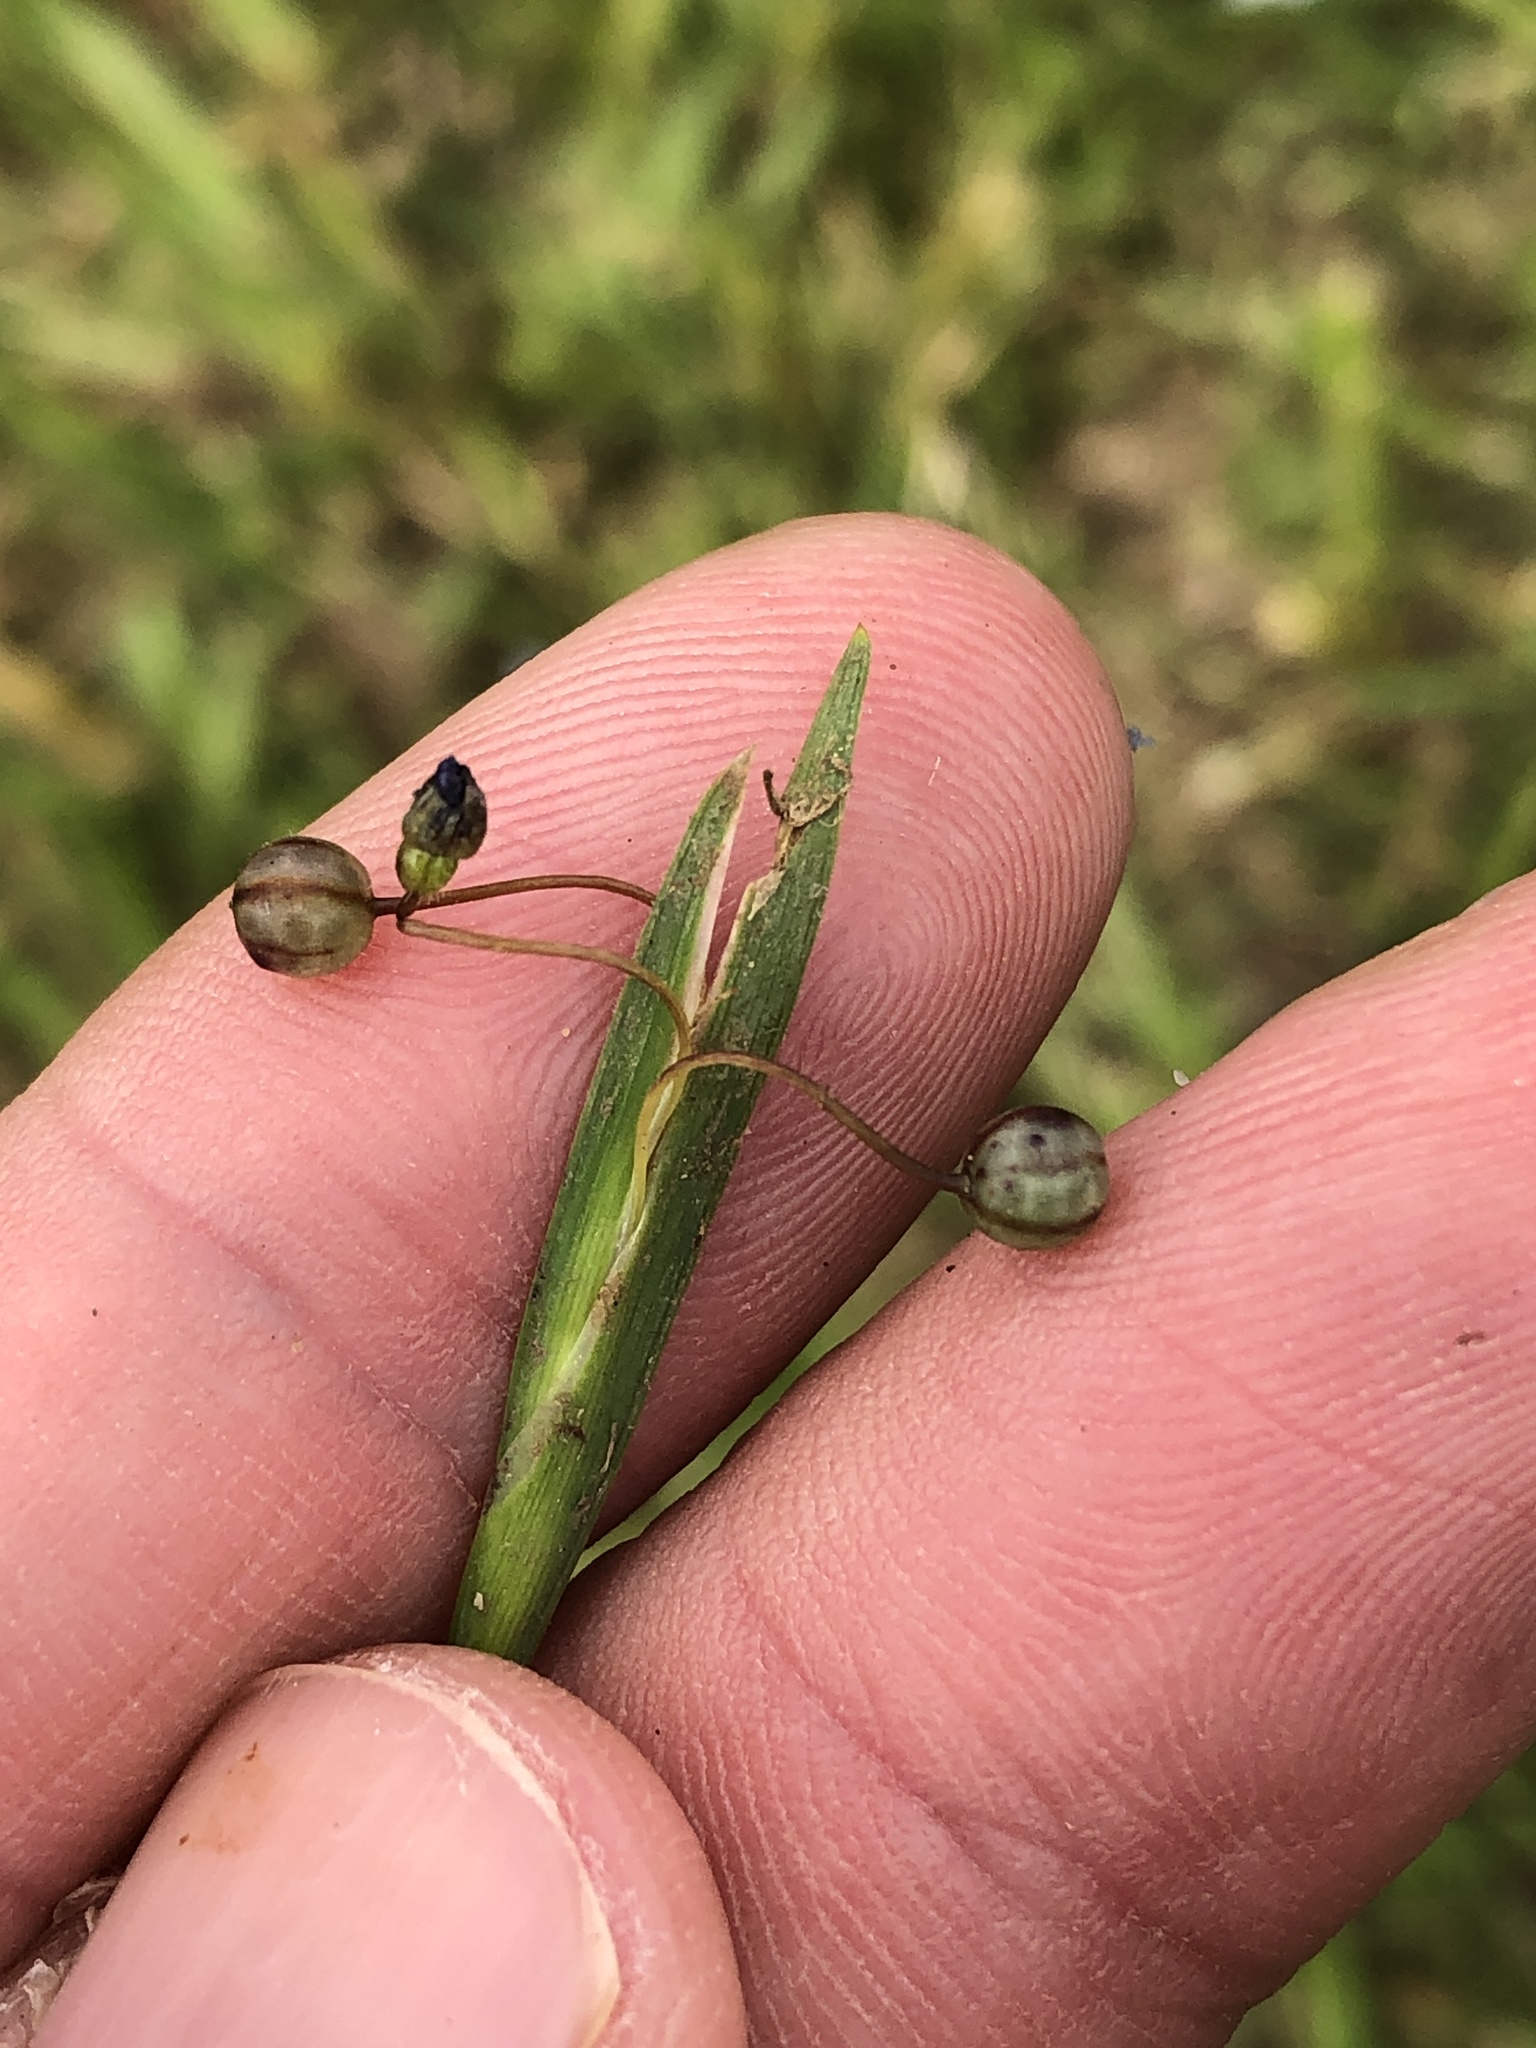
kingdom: Plantae
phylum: Tracheophyta
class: Liliopsida
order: Asparagales
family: Iridaceae
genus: Sisyrinchium
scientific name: Sisyrinchium micranthum
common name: Bermuda pigroot
